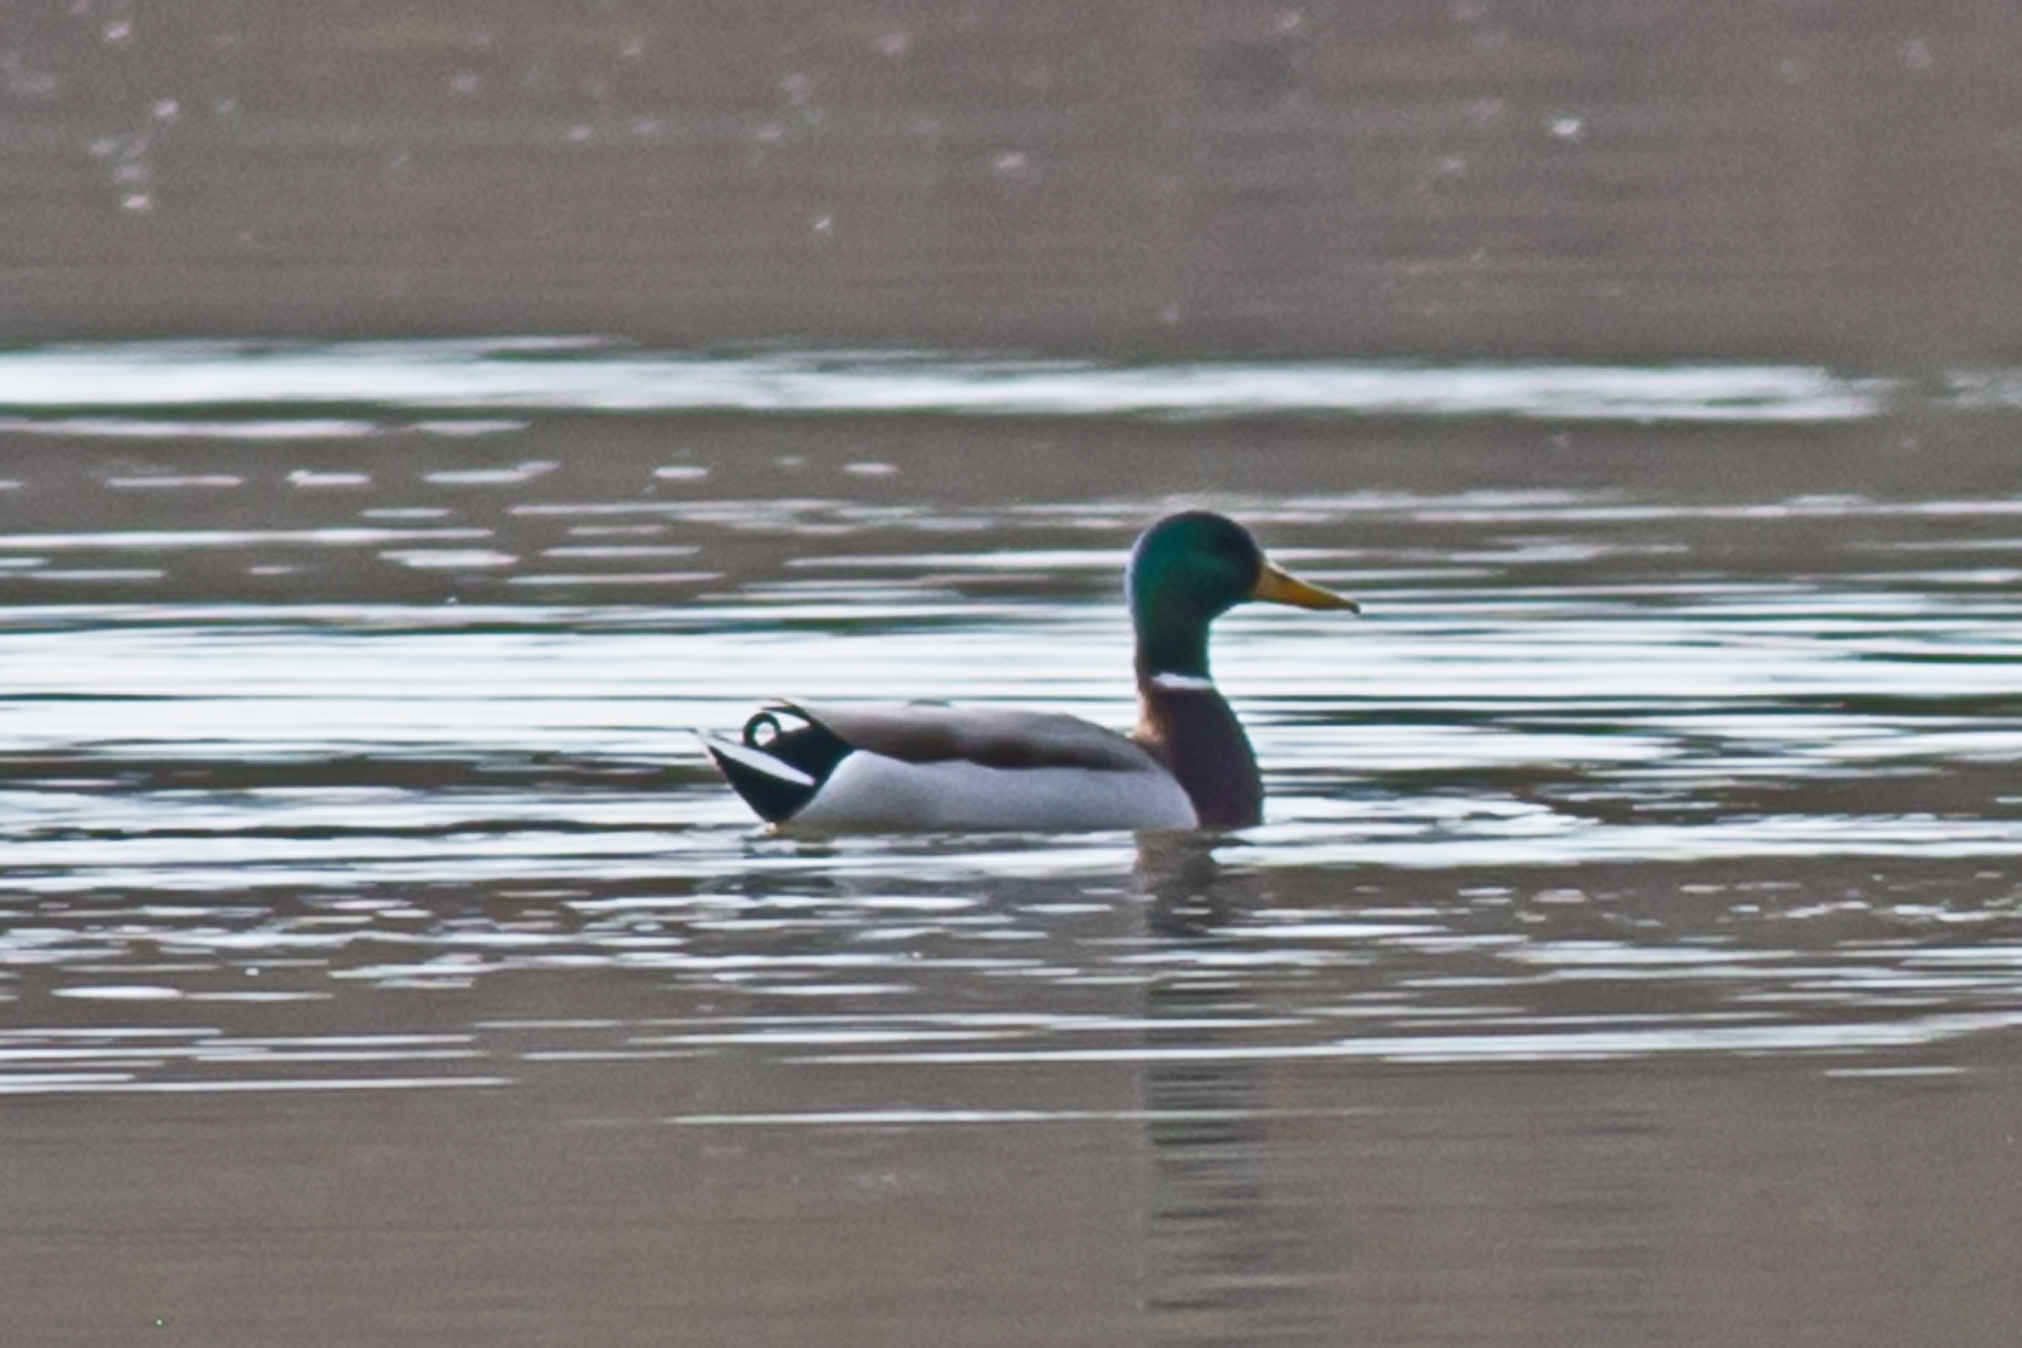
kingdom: Animalia
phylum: Chordata
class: Aves
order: Anseriformes
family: Anatidae
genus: Anas
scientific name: Anas platyrhynchos
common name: Mallard
